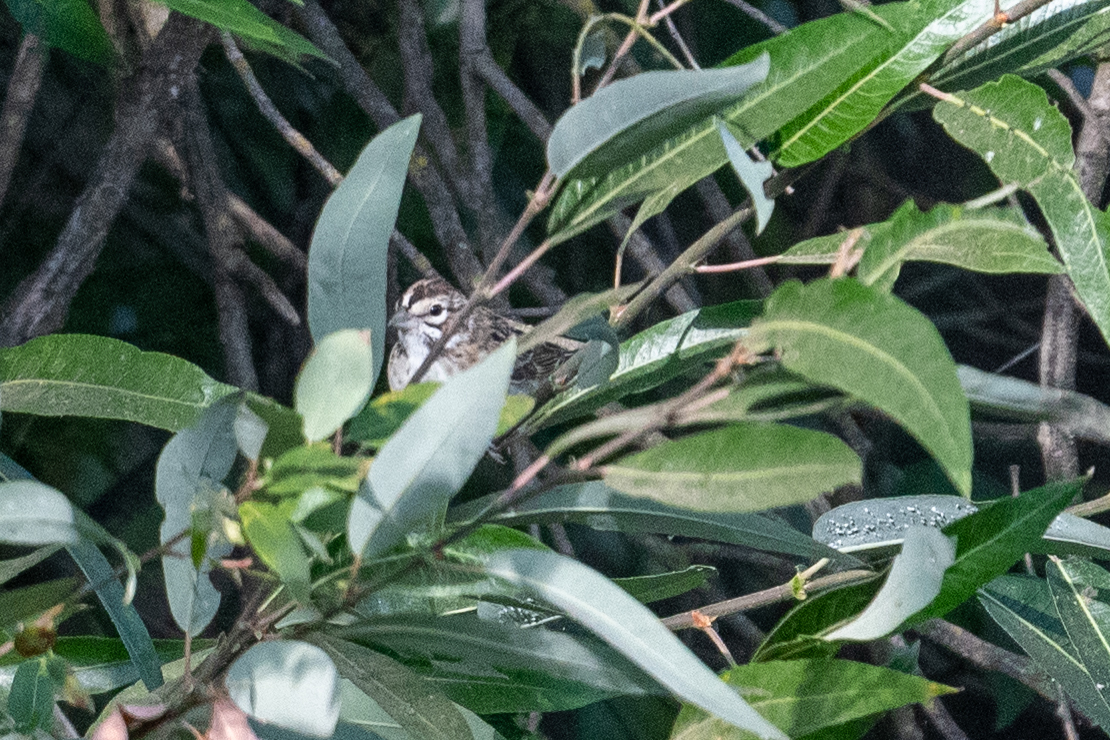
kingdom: Animalia
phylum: Chordata
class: Aves
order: Passeriformes
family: Passerellidae
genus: Chondestes
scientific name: Chondestes grammacus
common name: Lark sparrow
